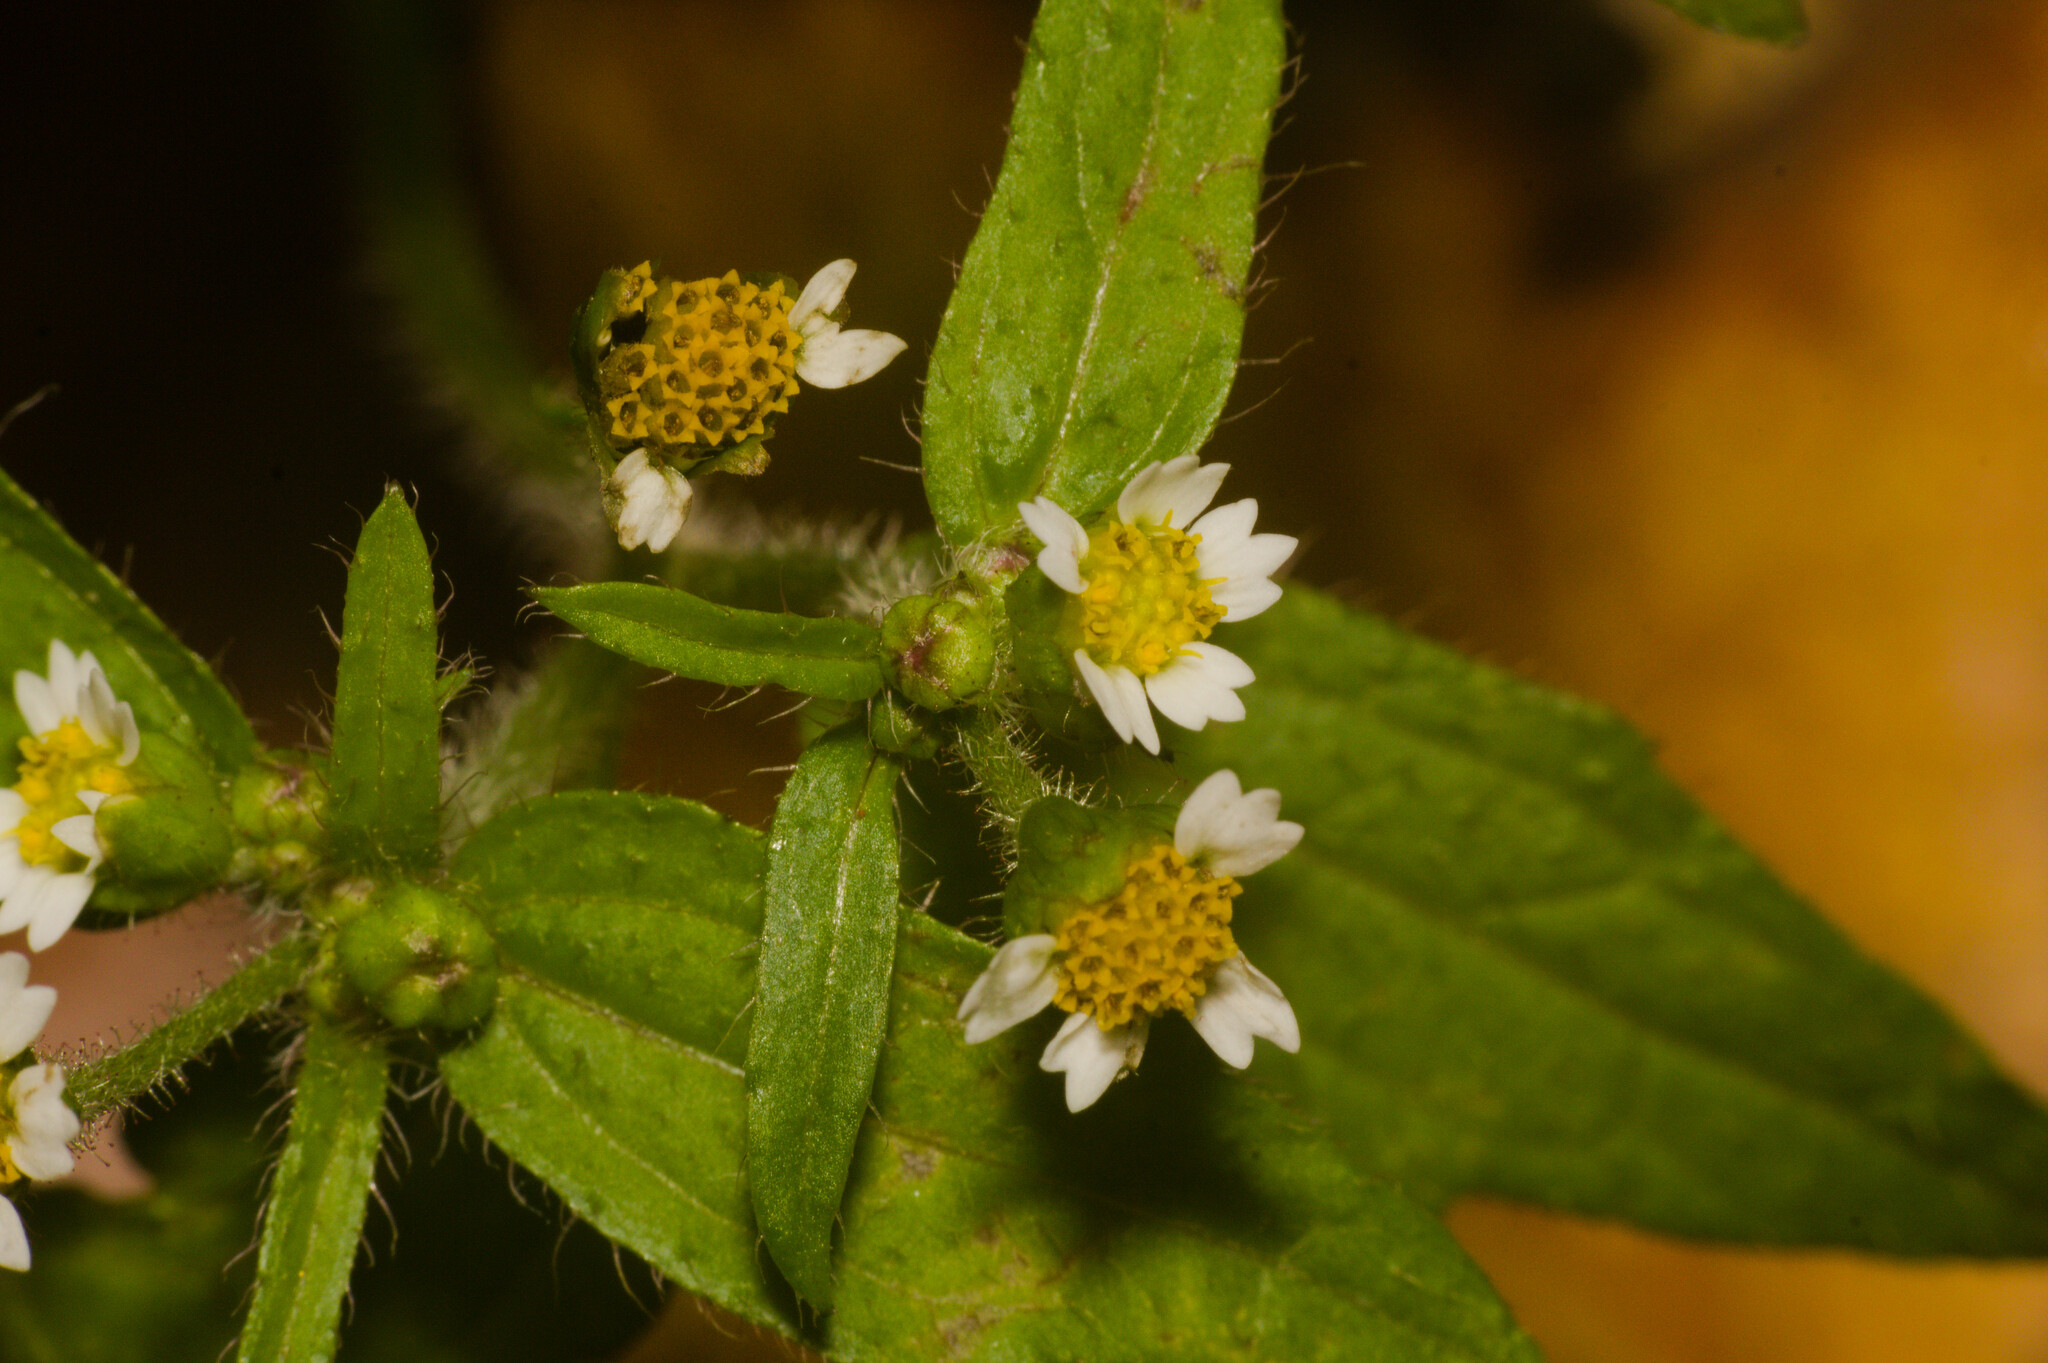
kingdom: Plantae
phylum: Tracheophyta
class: Magnoliopsida
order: Asterales
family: Asteraceae
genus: Galinsoga
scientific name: Galinsoga quadriradiata
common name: Shaggy soldier
